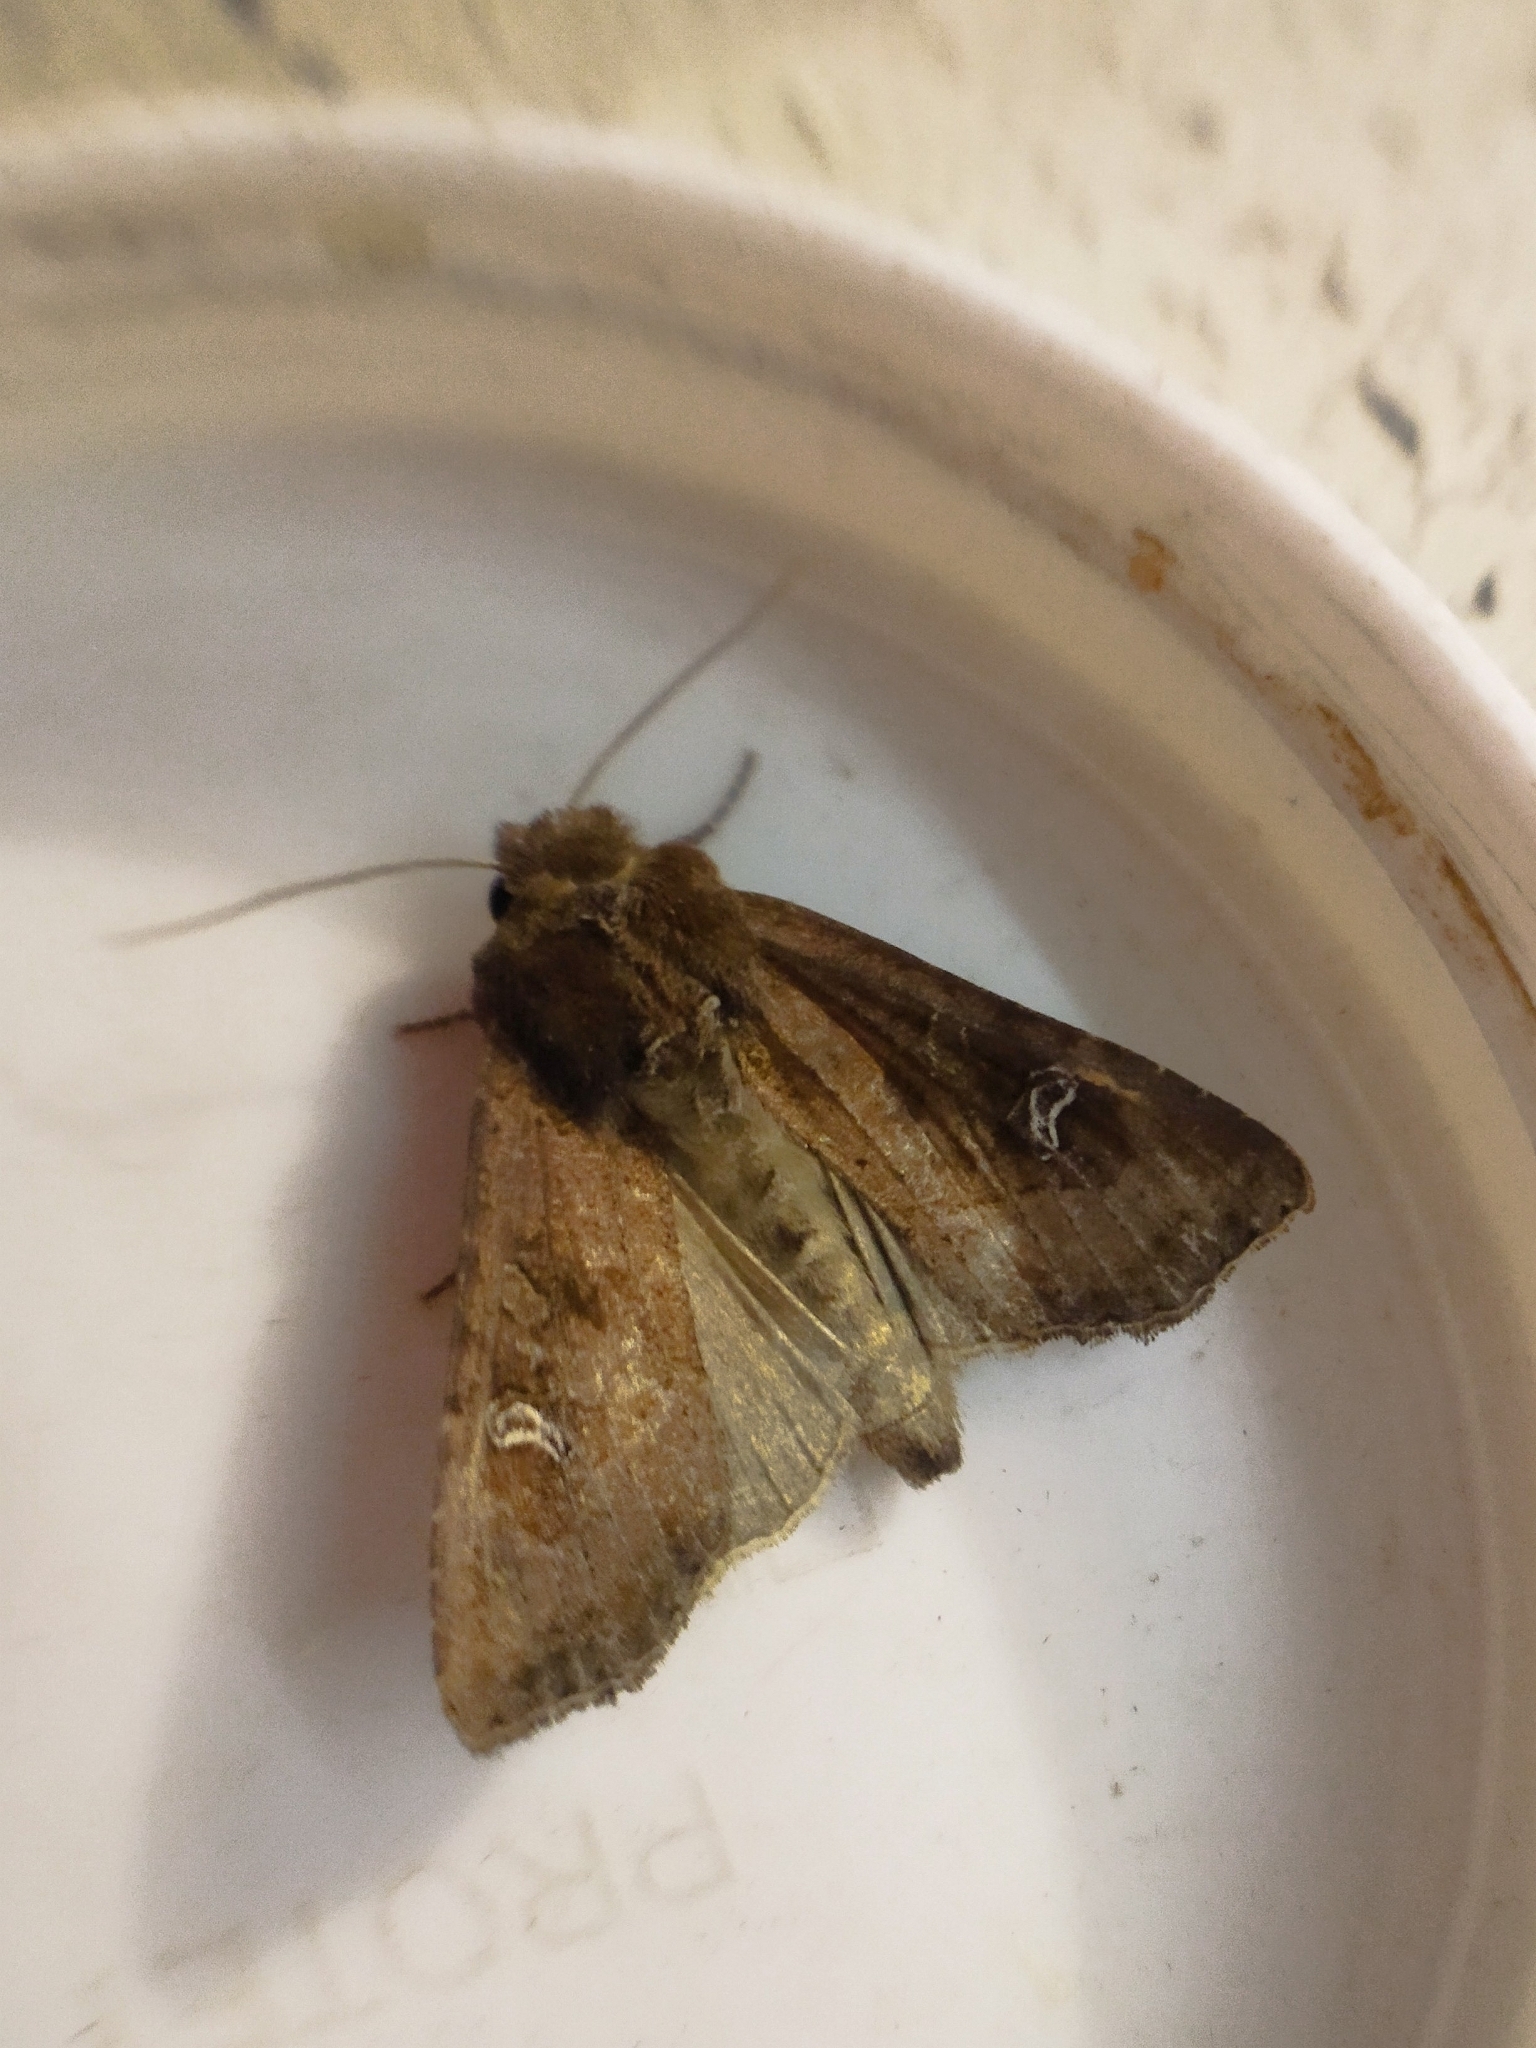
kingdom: Animalia
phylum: Arthropoda
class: Insecta
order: Lepidoptera
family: Noctuidae
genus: Helotropha
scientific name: Helotropha leucostigma
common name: The crescent
